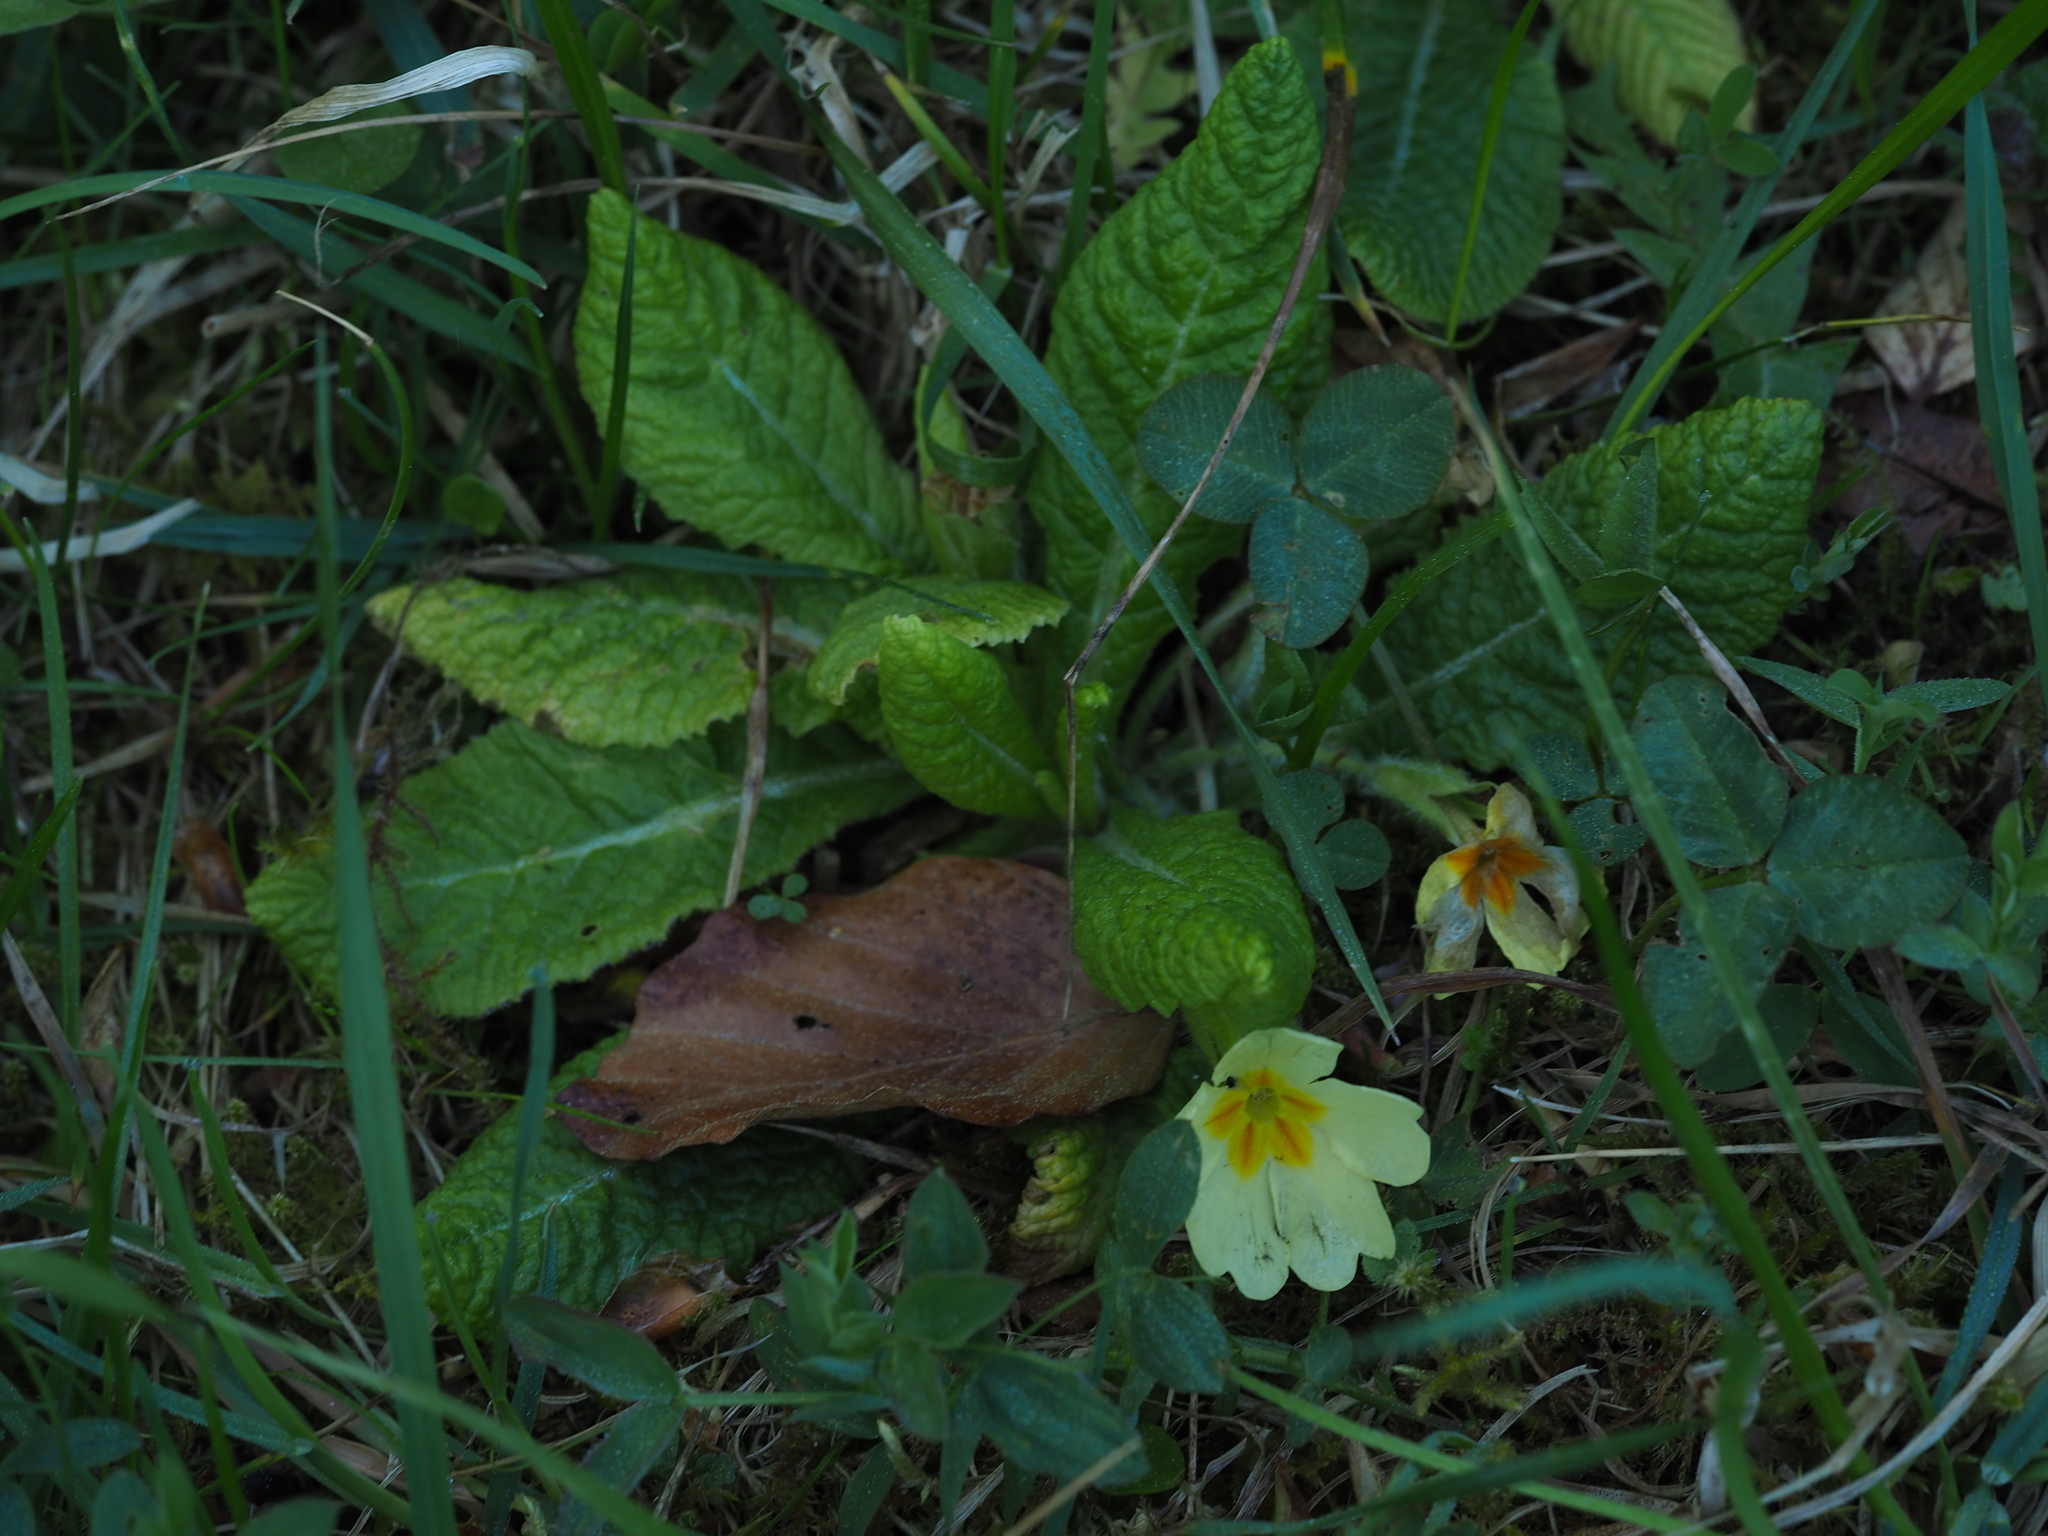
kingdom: Plantae
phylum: Tracheophyta
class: Magnoliopsida
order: Ericales
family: Primulaceae
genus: Primula
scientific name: Primula vulgaris
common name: Primrose
